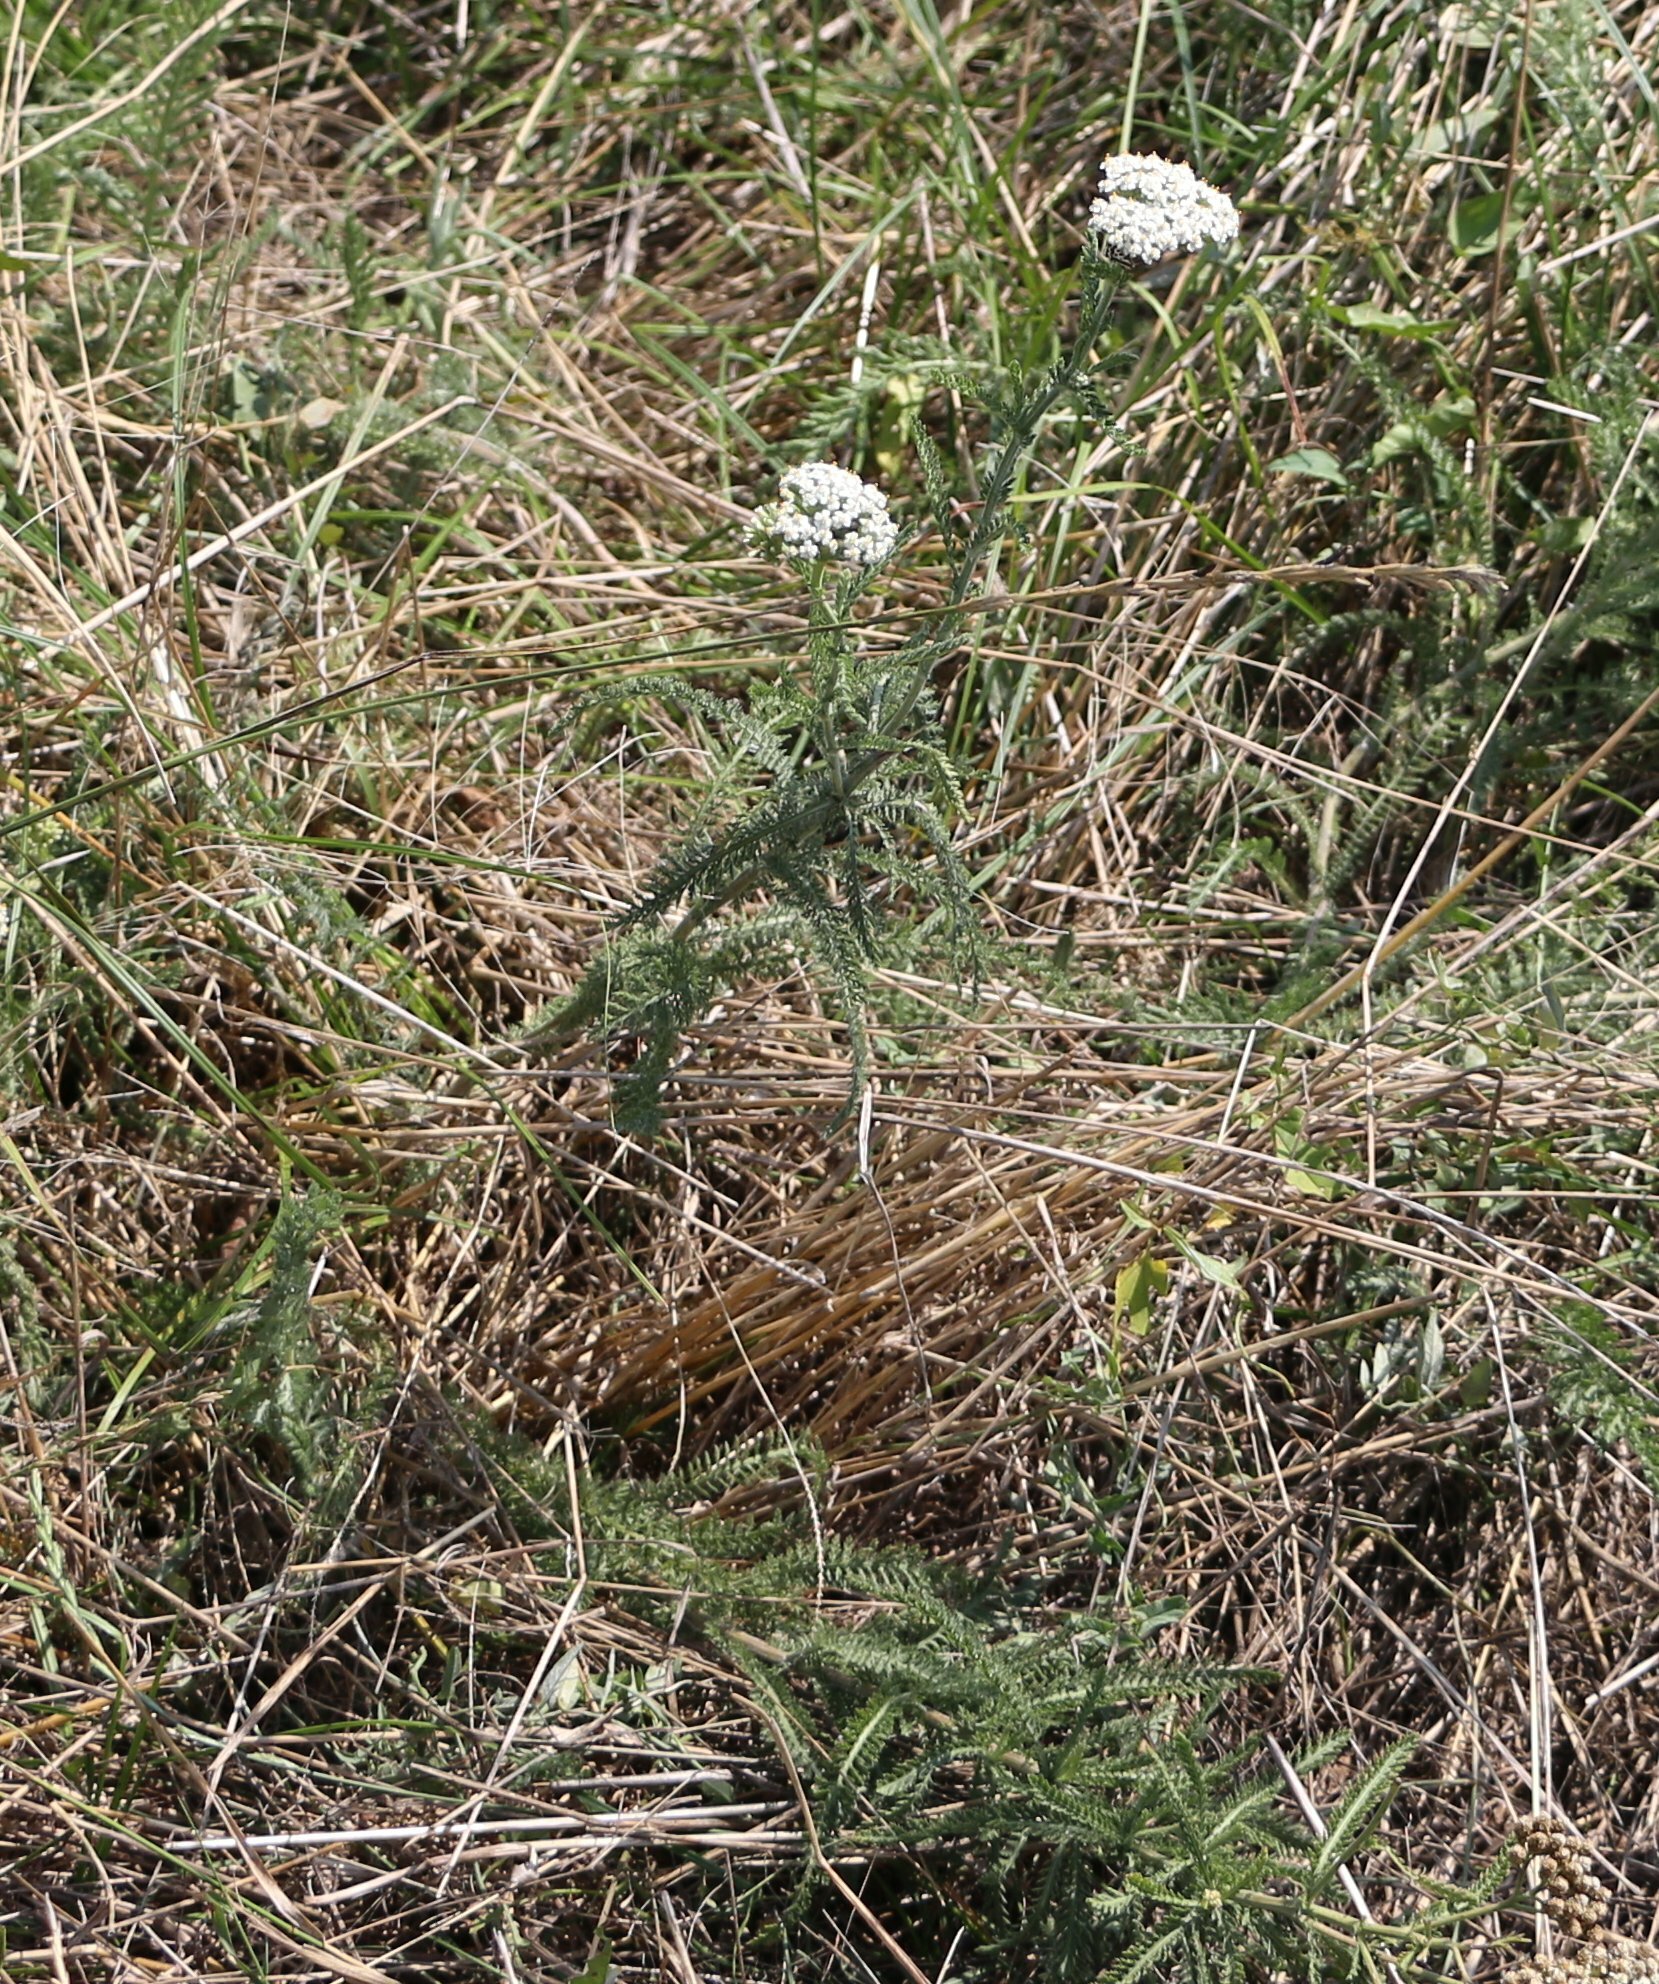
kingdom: Plantae
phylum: Tracheophyta
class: Magnoliopsida
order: Asterales
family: Asteraceae
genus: Achillea
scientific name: Achillea millefolium
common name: Yarrow
